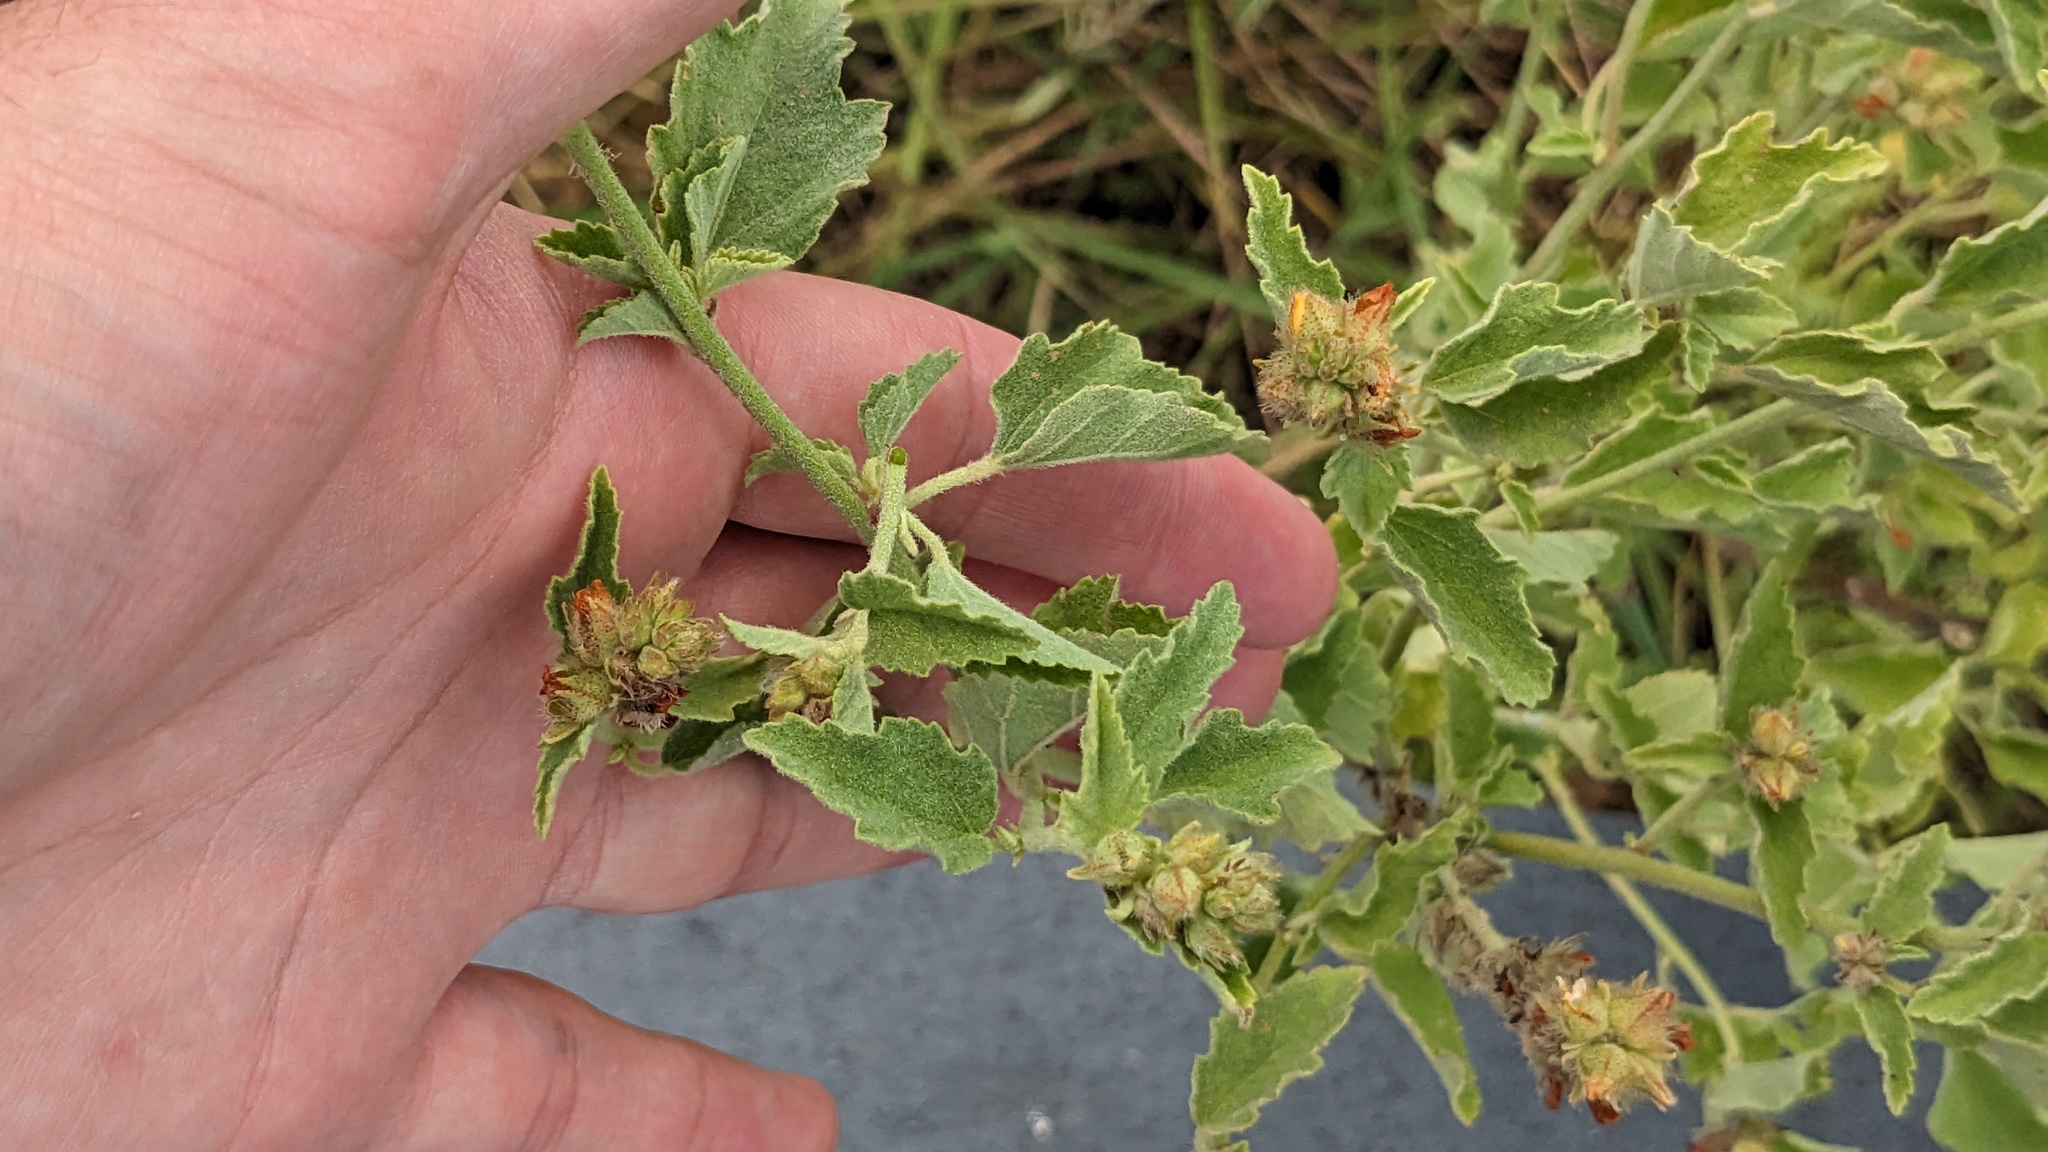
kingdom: Plantae
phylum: Tracheophyta
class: Magnoliopsida
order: Malvales
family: Malvaceae
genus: Malvastrum
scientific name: Malvastrum americanum
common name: Spiked malvastrum
